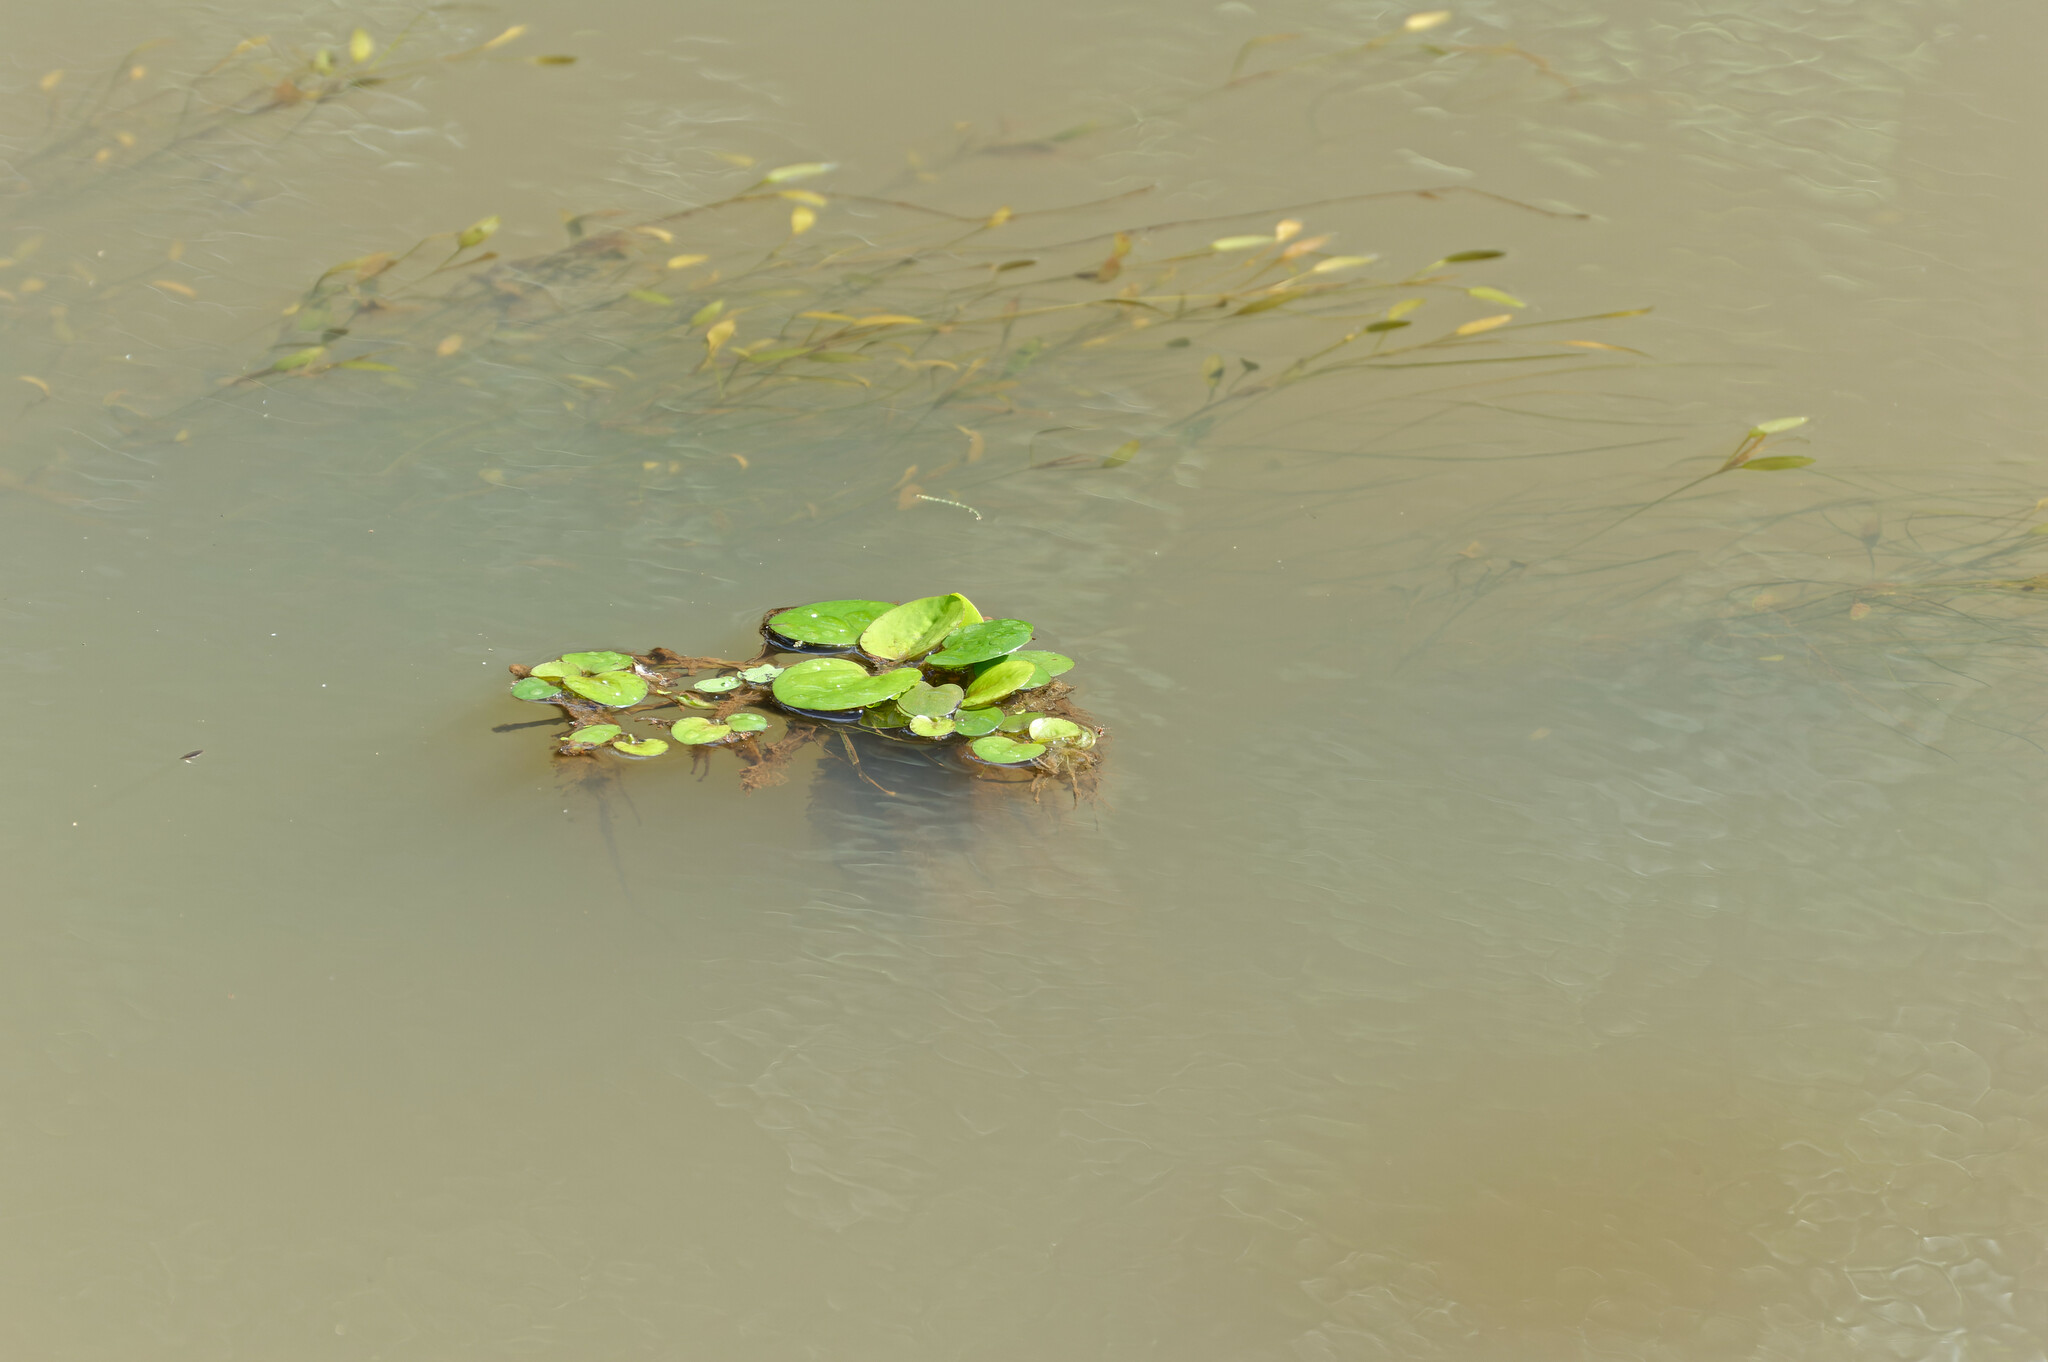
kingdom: Plantae
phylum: Tracheophyta
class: Liliopsida
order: Alismatales
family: Hydrocharitaceae
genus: Hydrocharis
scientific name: Hydrocharis laevigata
